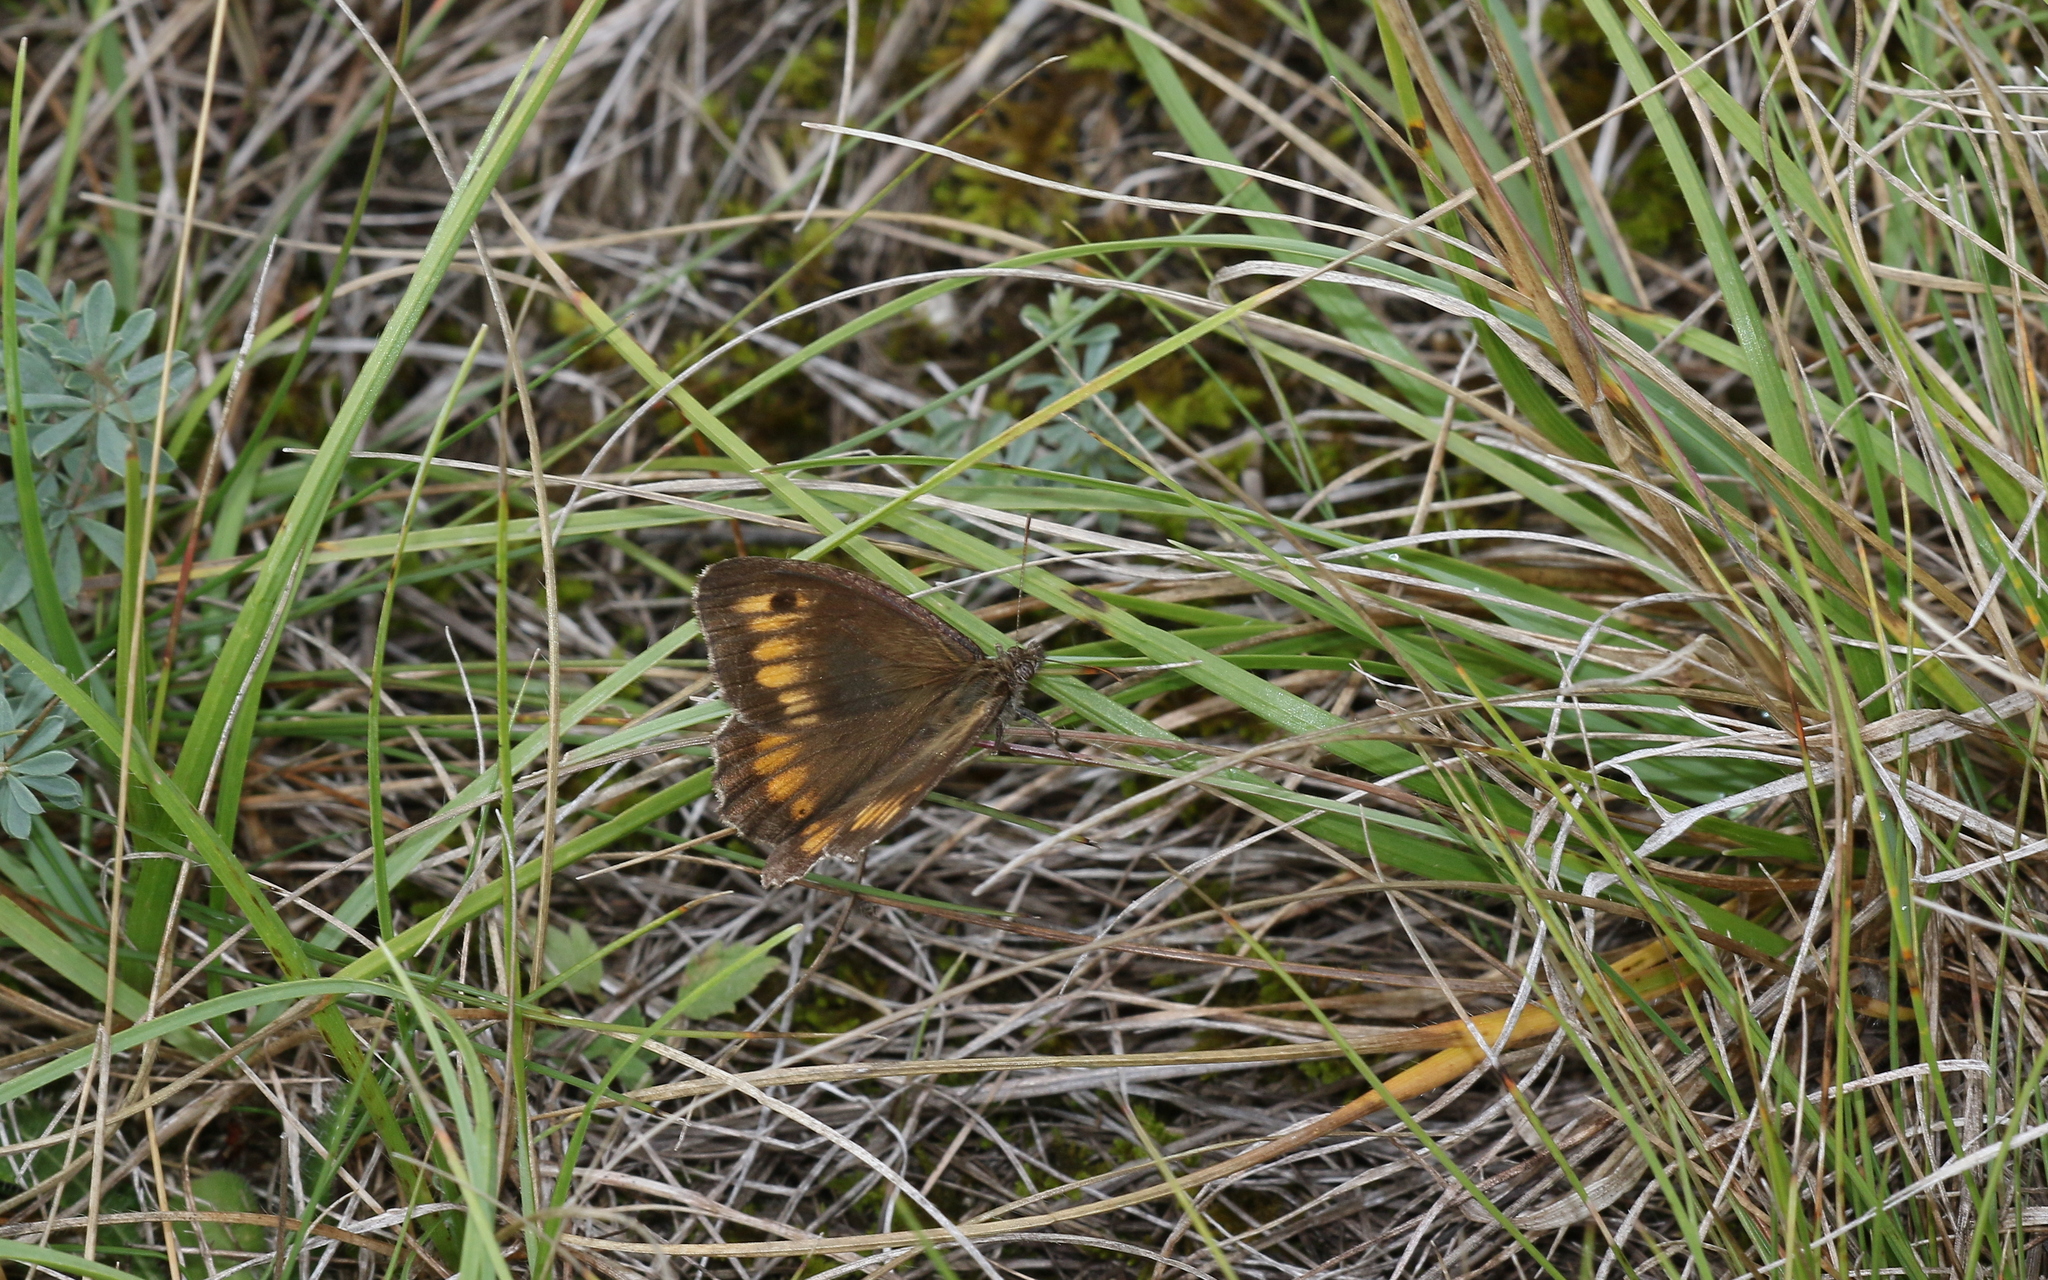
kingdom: Animalia
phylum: Arthropoda
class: Insecta
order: Lepidoptera
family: Nymphalidae
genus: Arethusana
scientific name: Arethusana arethusa
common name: False grayling
